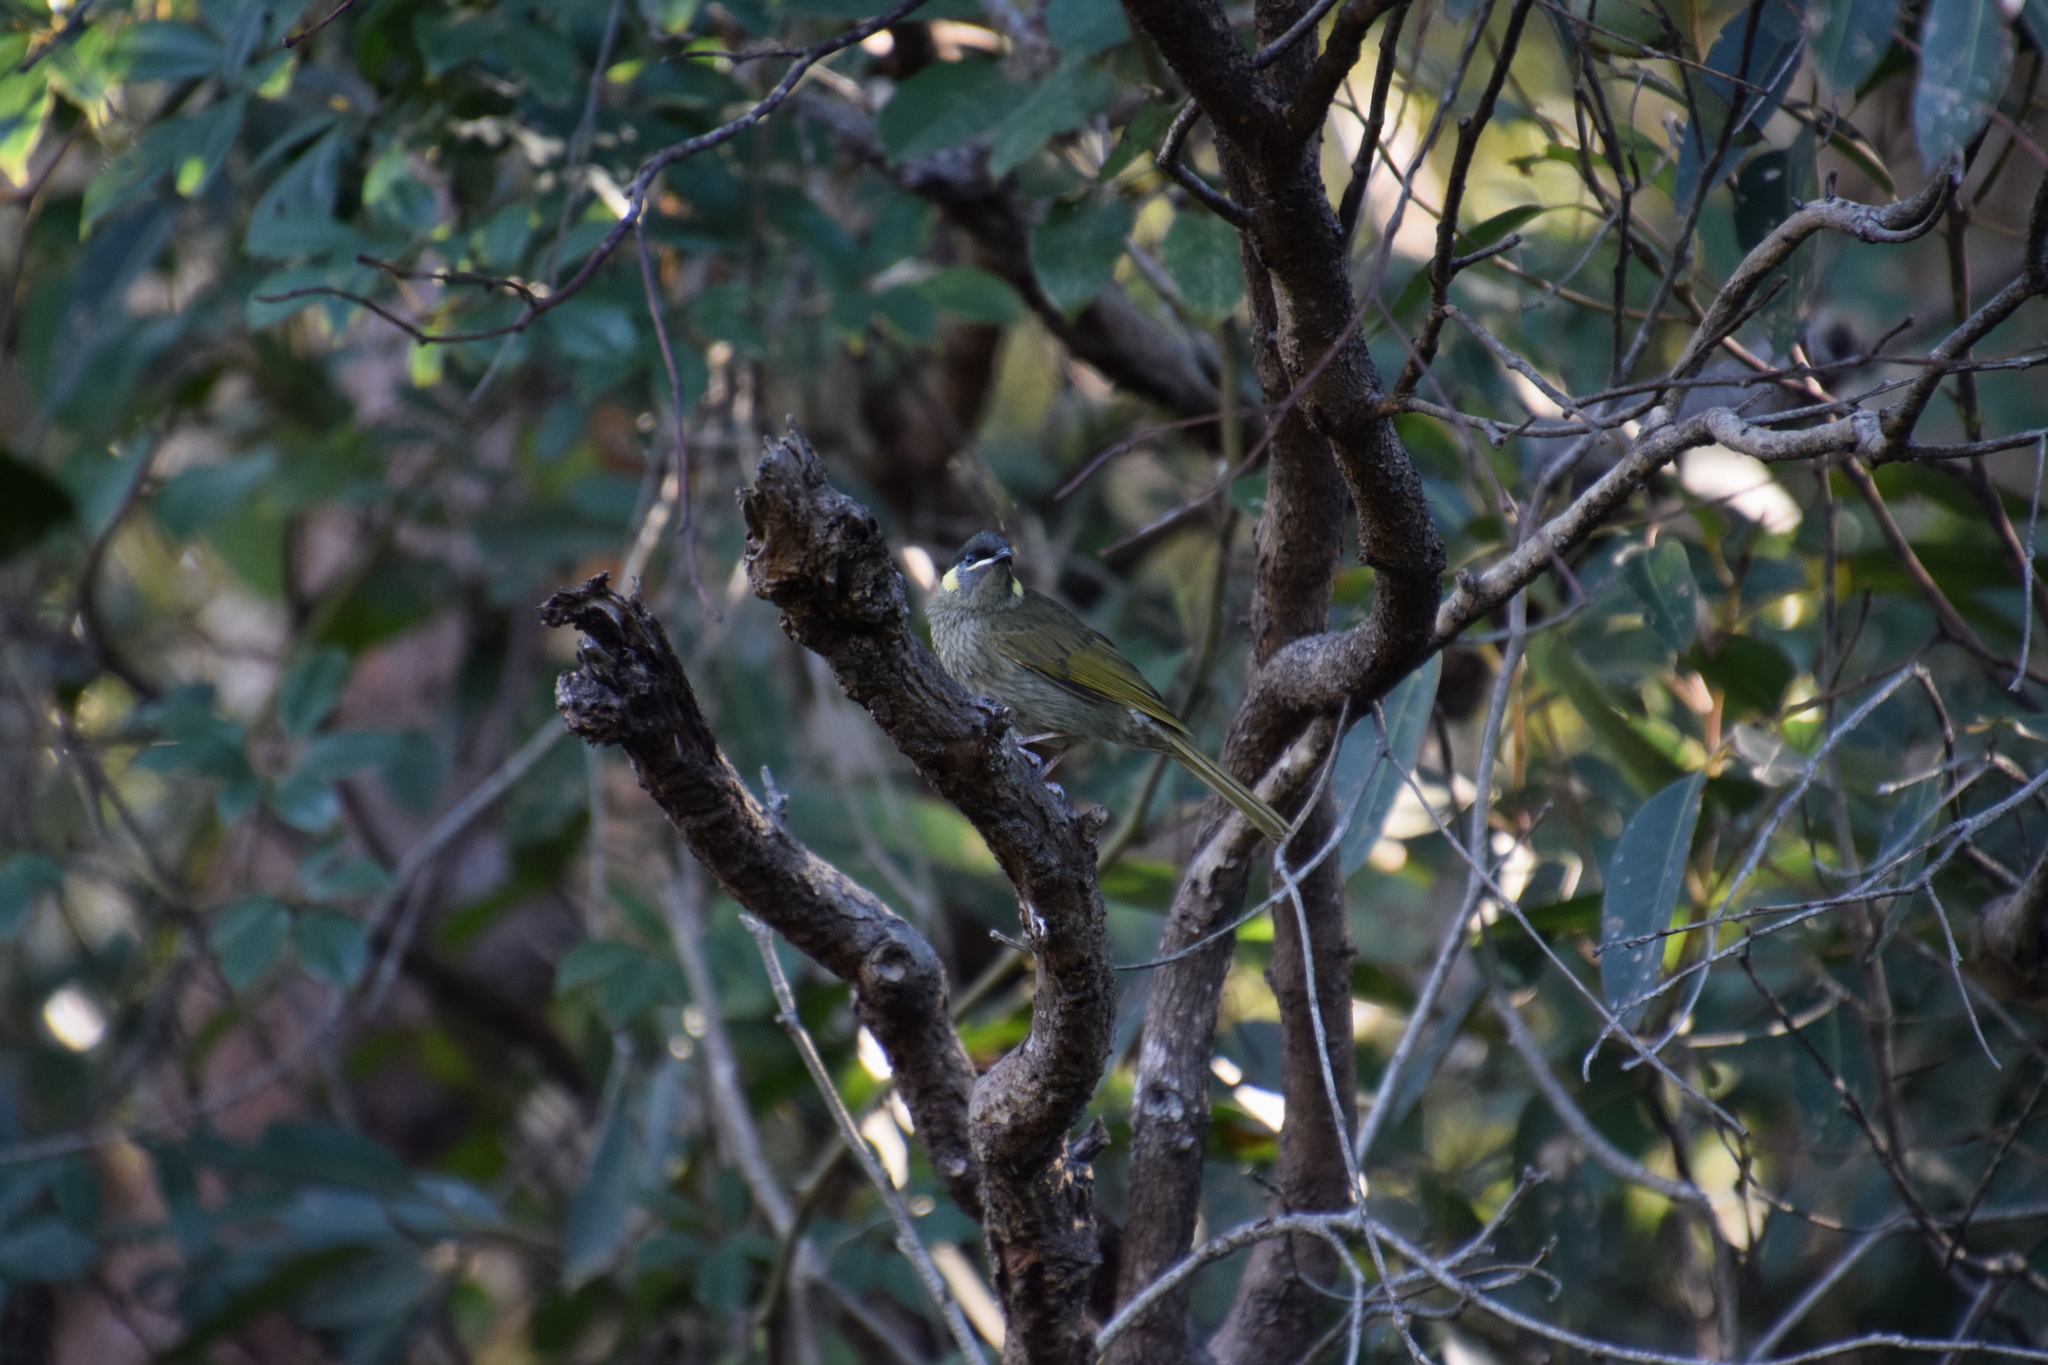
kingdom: Animalia
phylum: Chordata
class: Aves
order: Passeriformes
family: Meliphagidae
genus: Meliphaga
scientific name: Meliphaga lewinii
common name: Lewin's honeyeater
